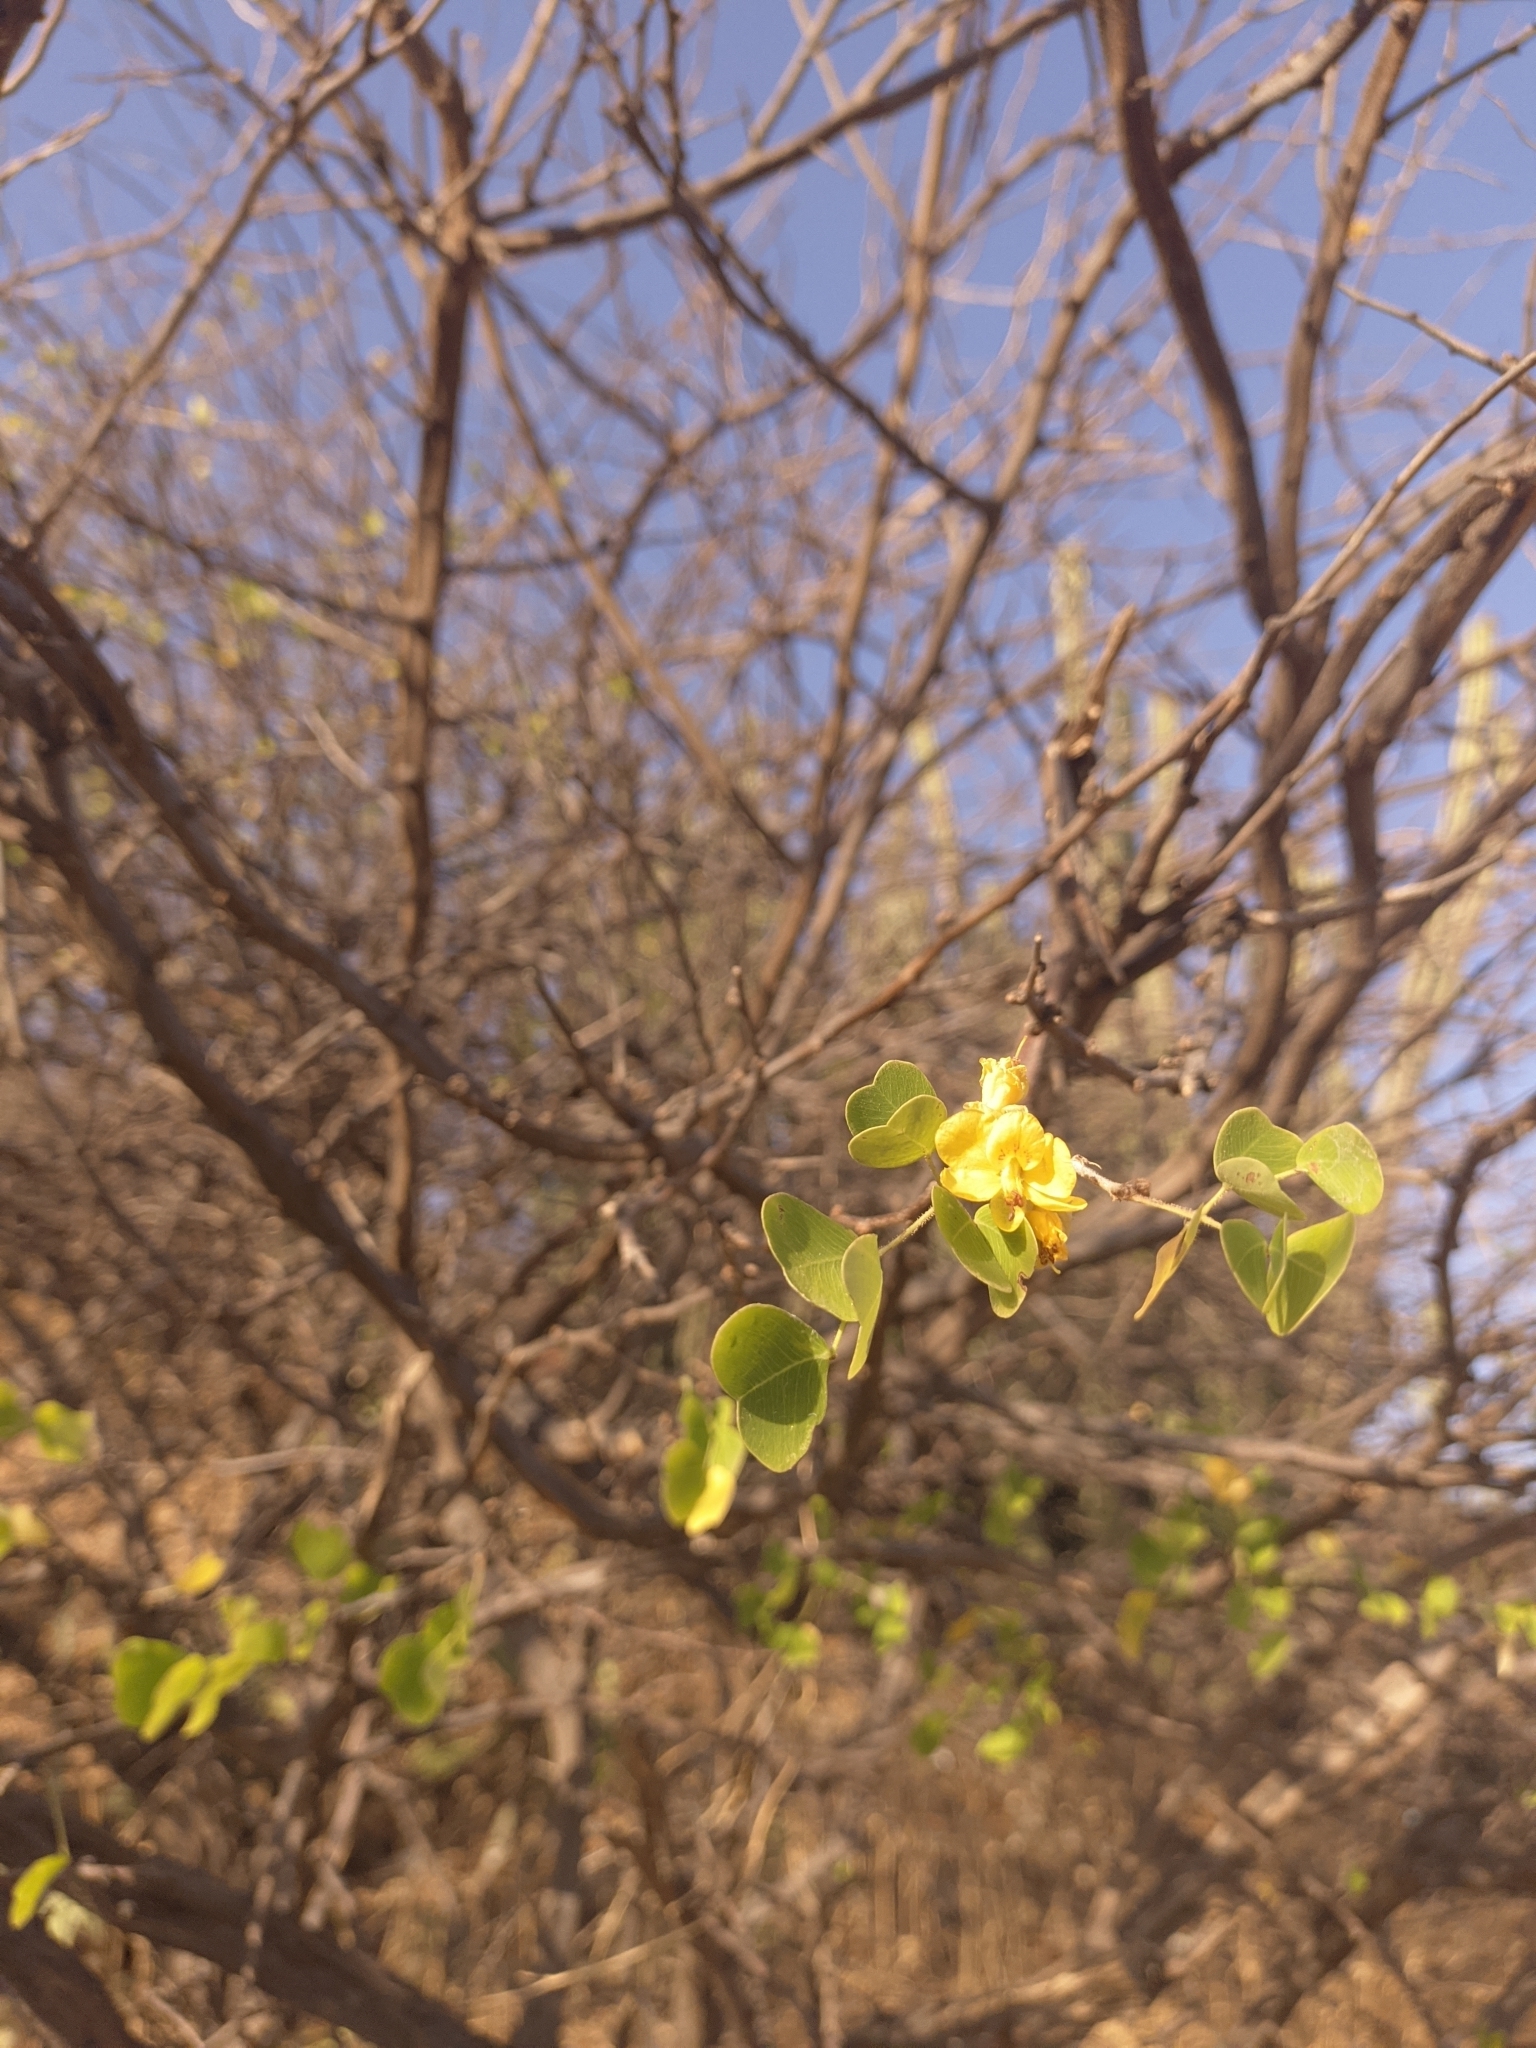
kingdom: Plantae
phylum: Tracheophyta
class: Magnoliopsida
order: Fabales
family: Fabaceae
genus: Haematoxylum
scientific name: Haematoxylum brasiletto
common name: Peachwood
